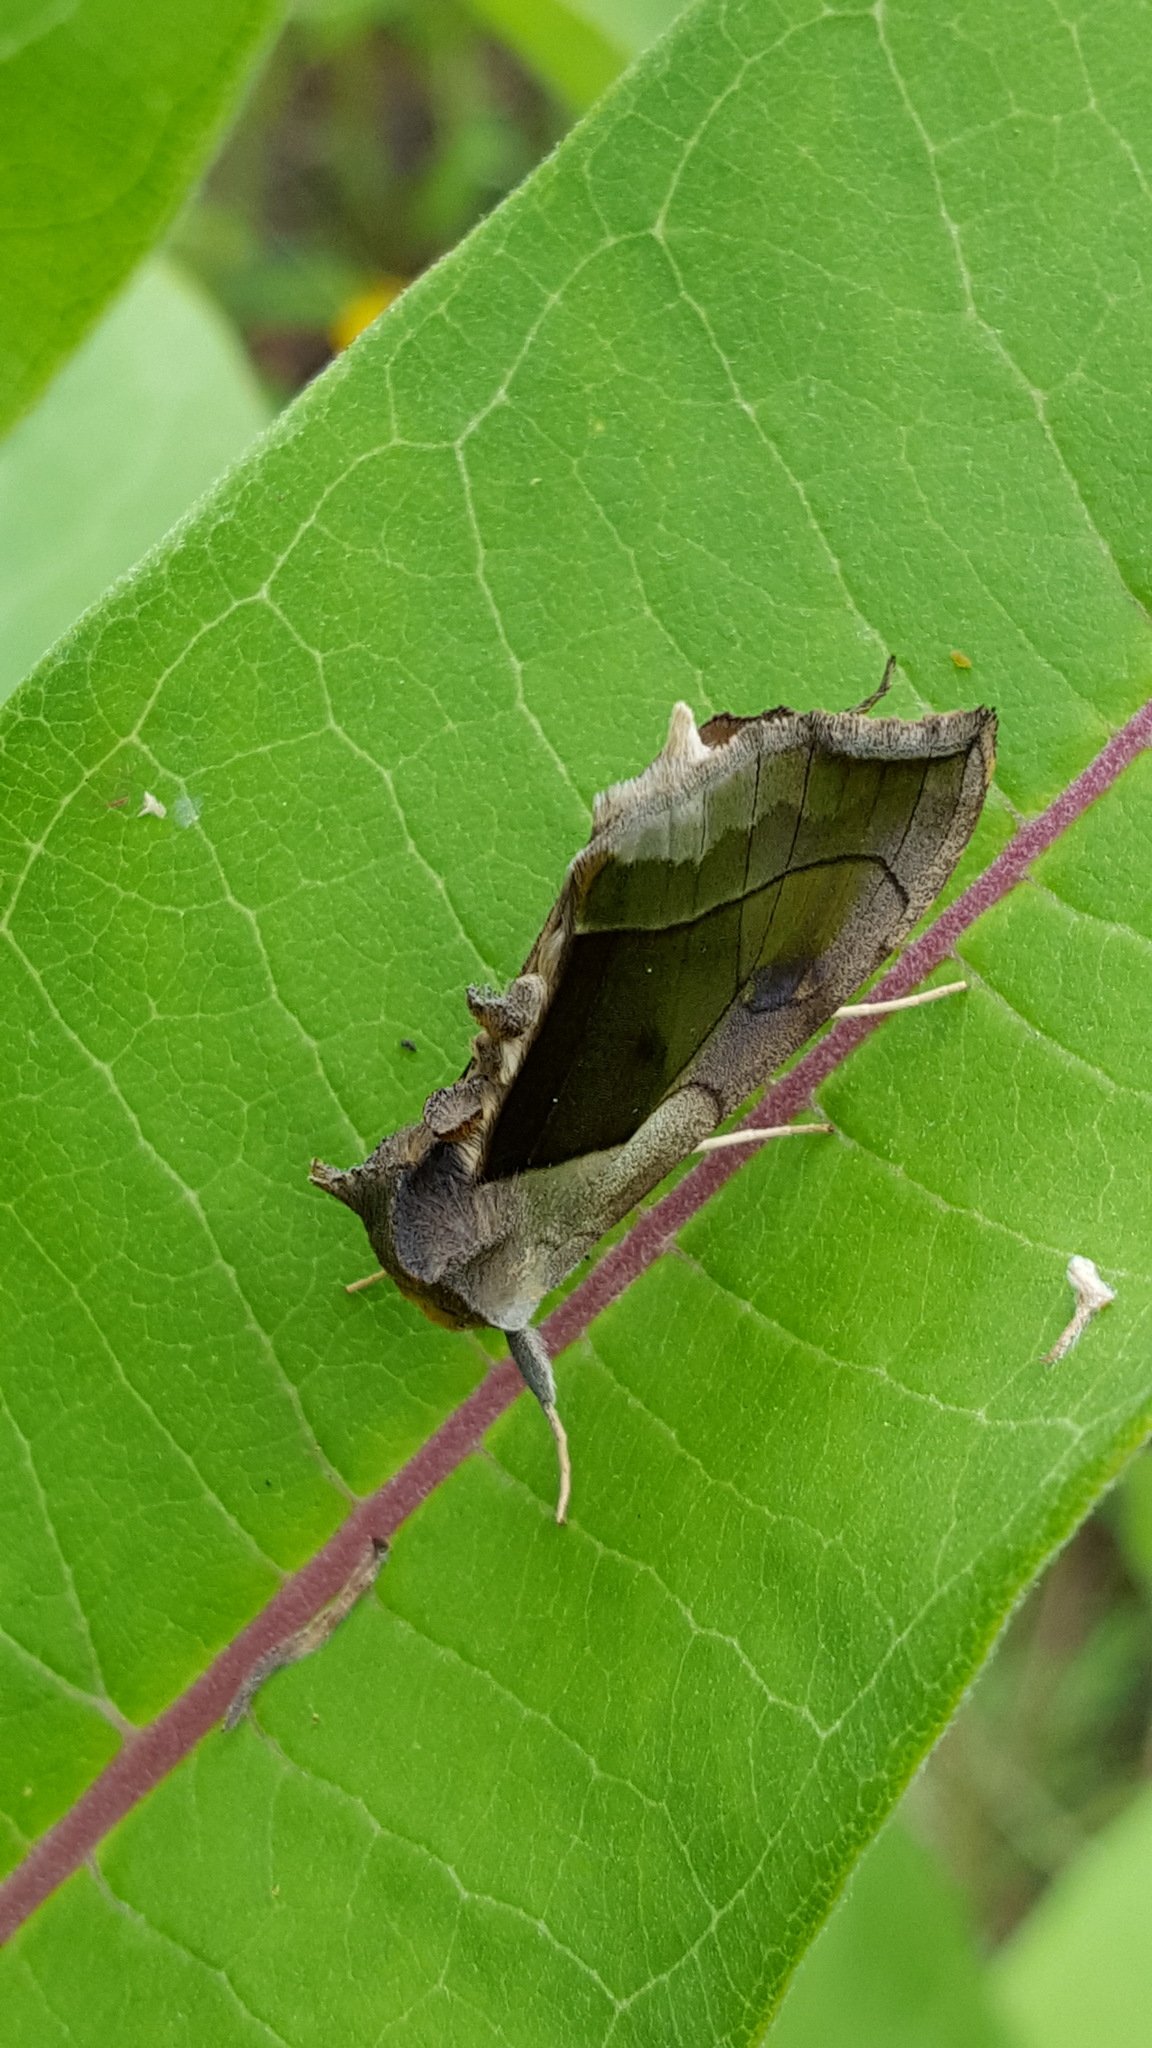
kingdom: Animalia
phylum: Arthropoda
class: Insecta
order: Lepidoptera
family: Noctuidae
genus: Diachrysia
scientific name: Diachrysia balluca
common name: Green-patched looper moth
